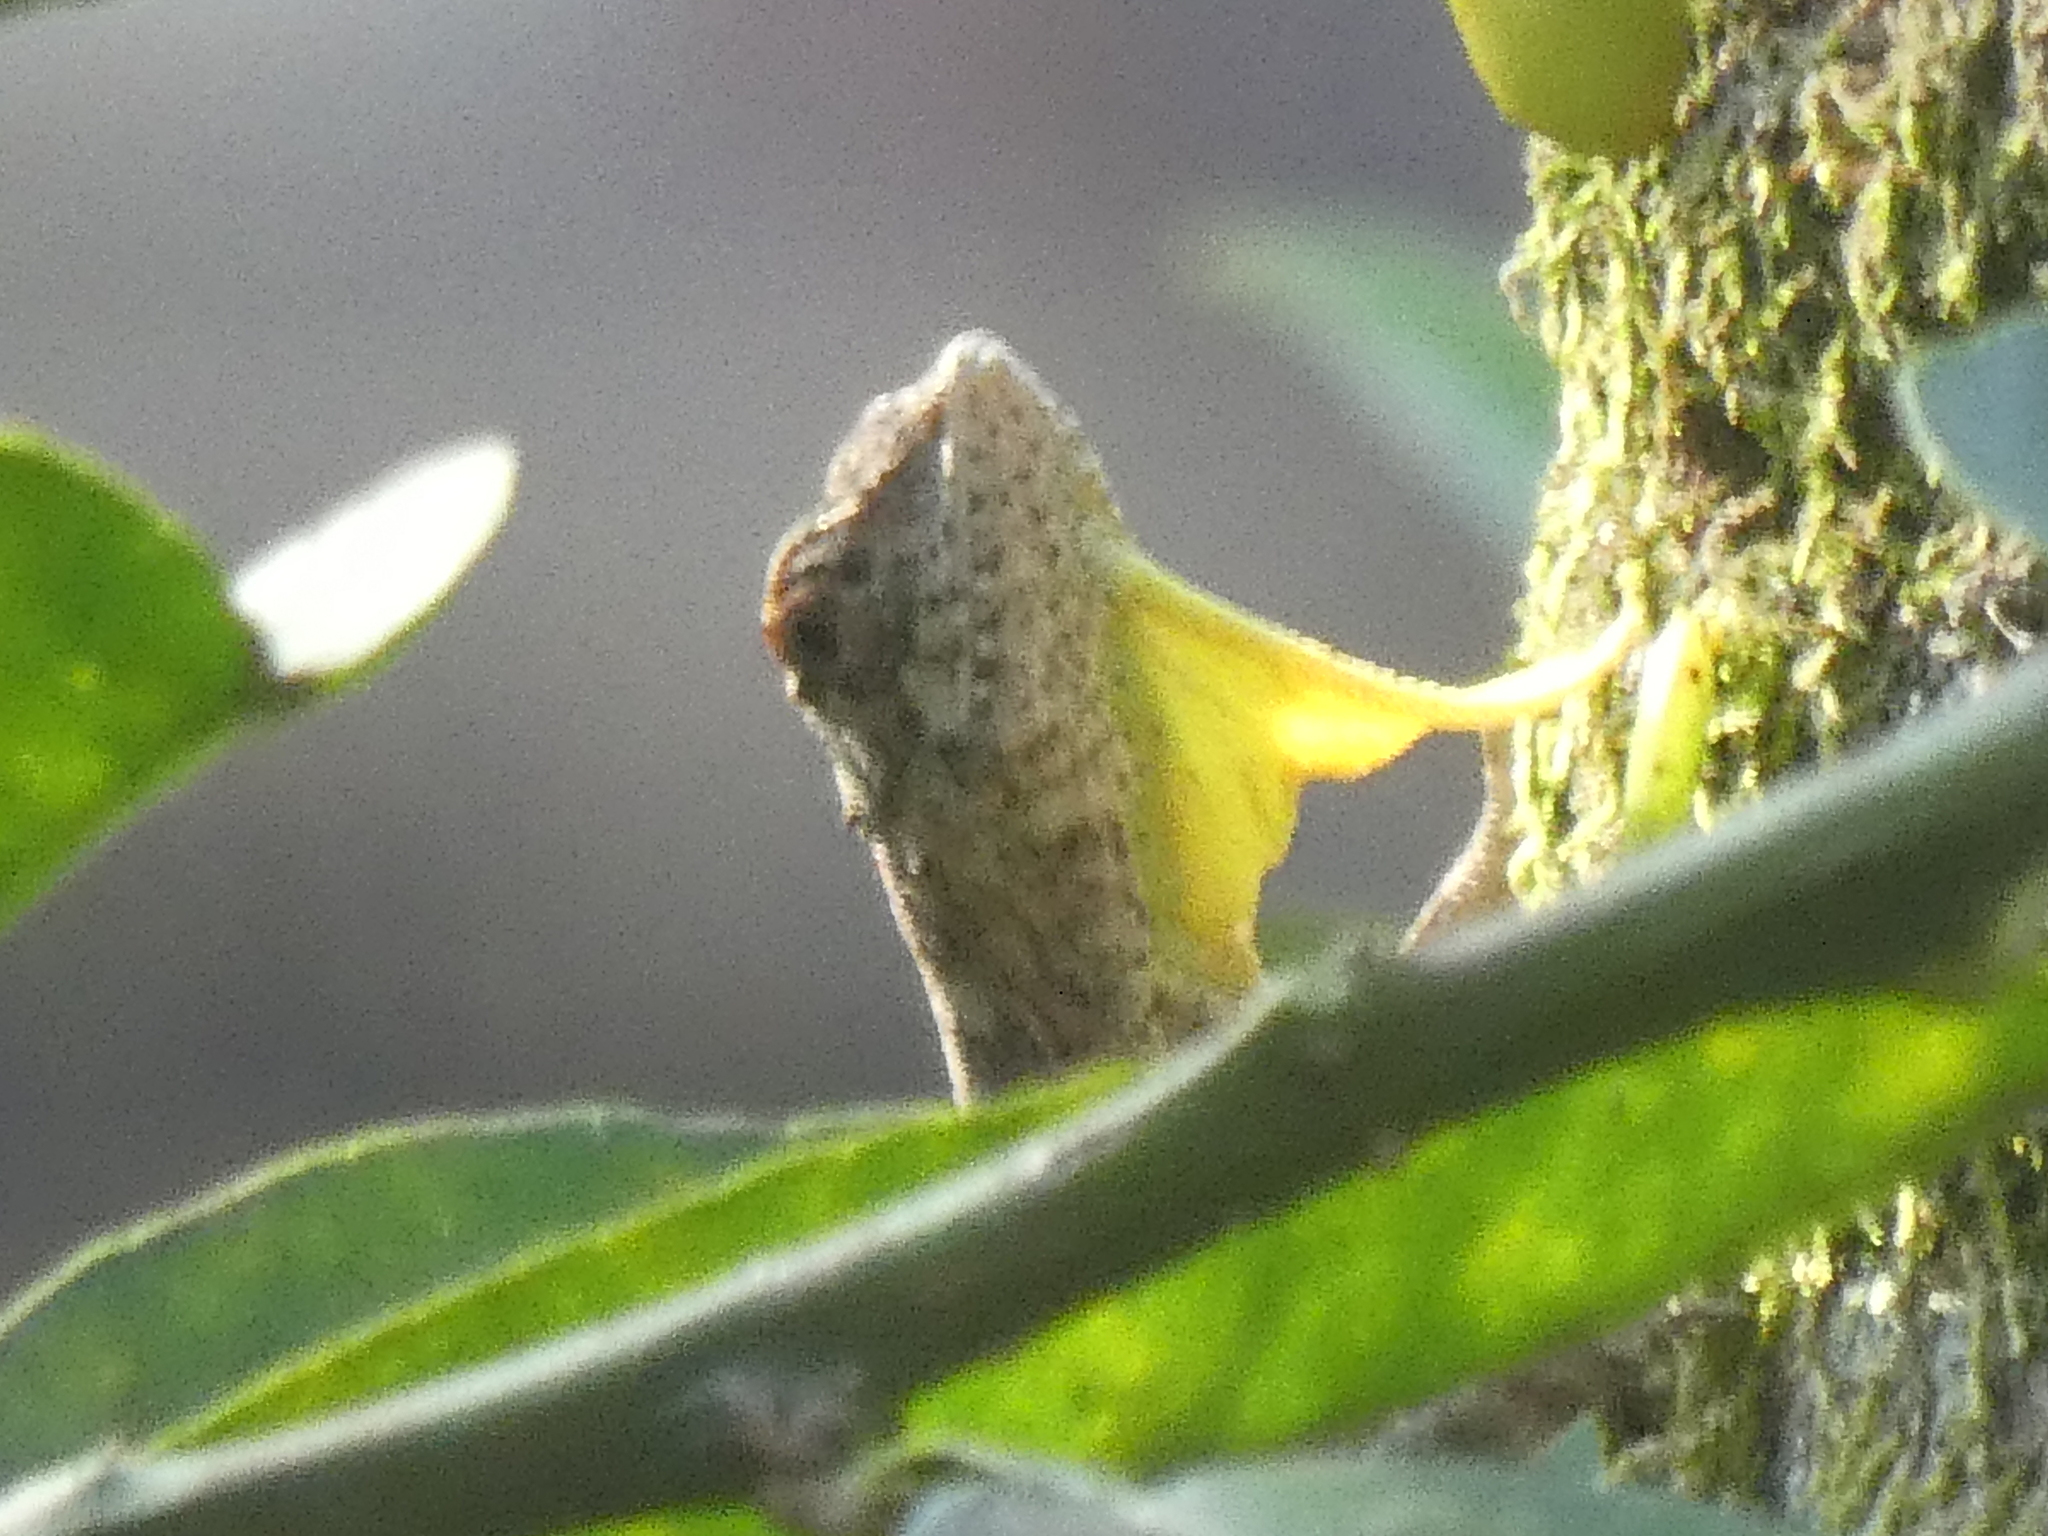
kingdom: Animalia
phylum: Chordata
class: Squamata
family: Agamidae
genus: Draco
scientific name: Draco volans
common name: Common flying dragon
